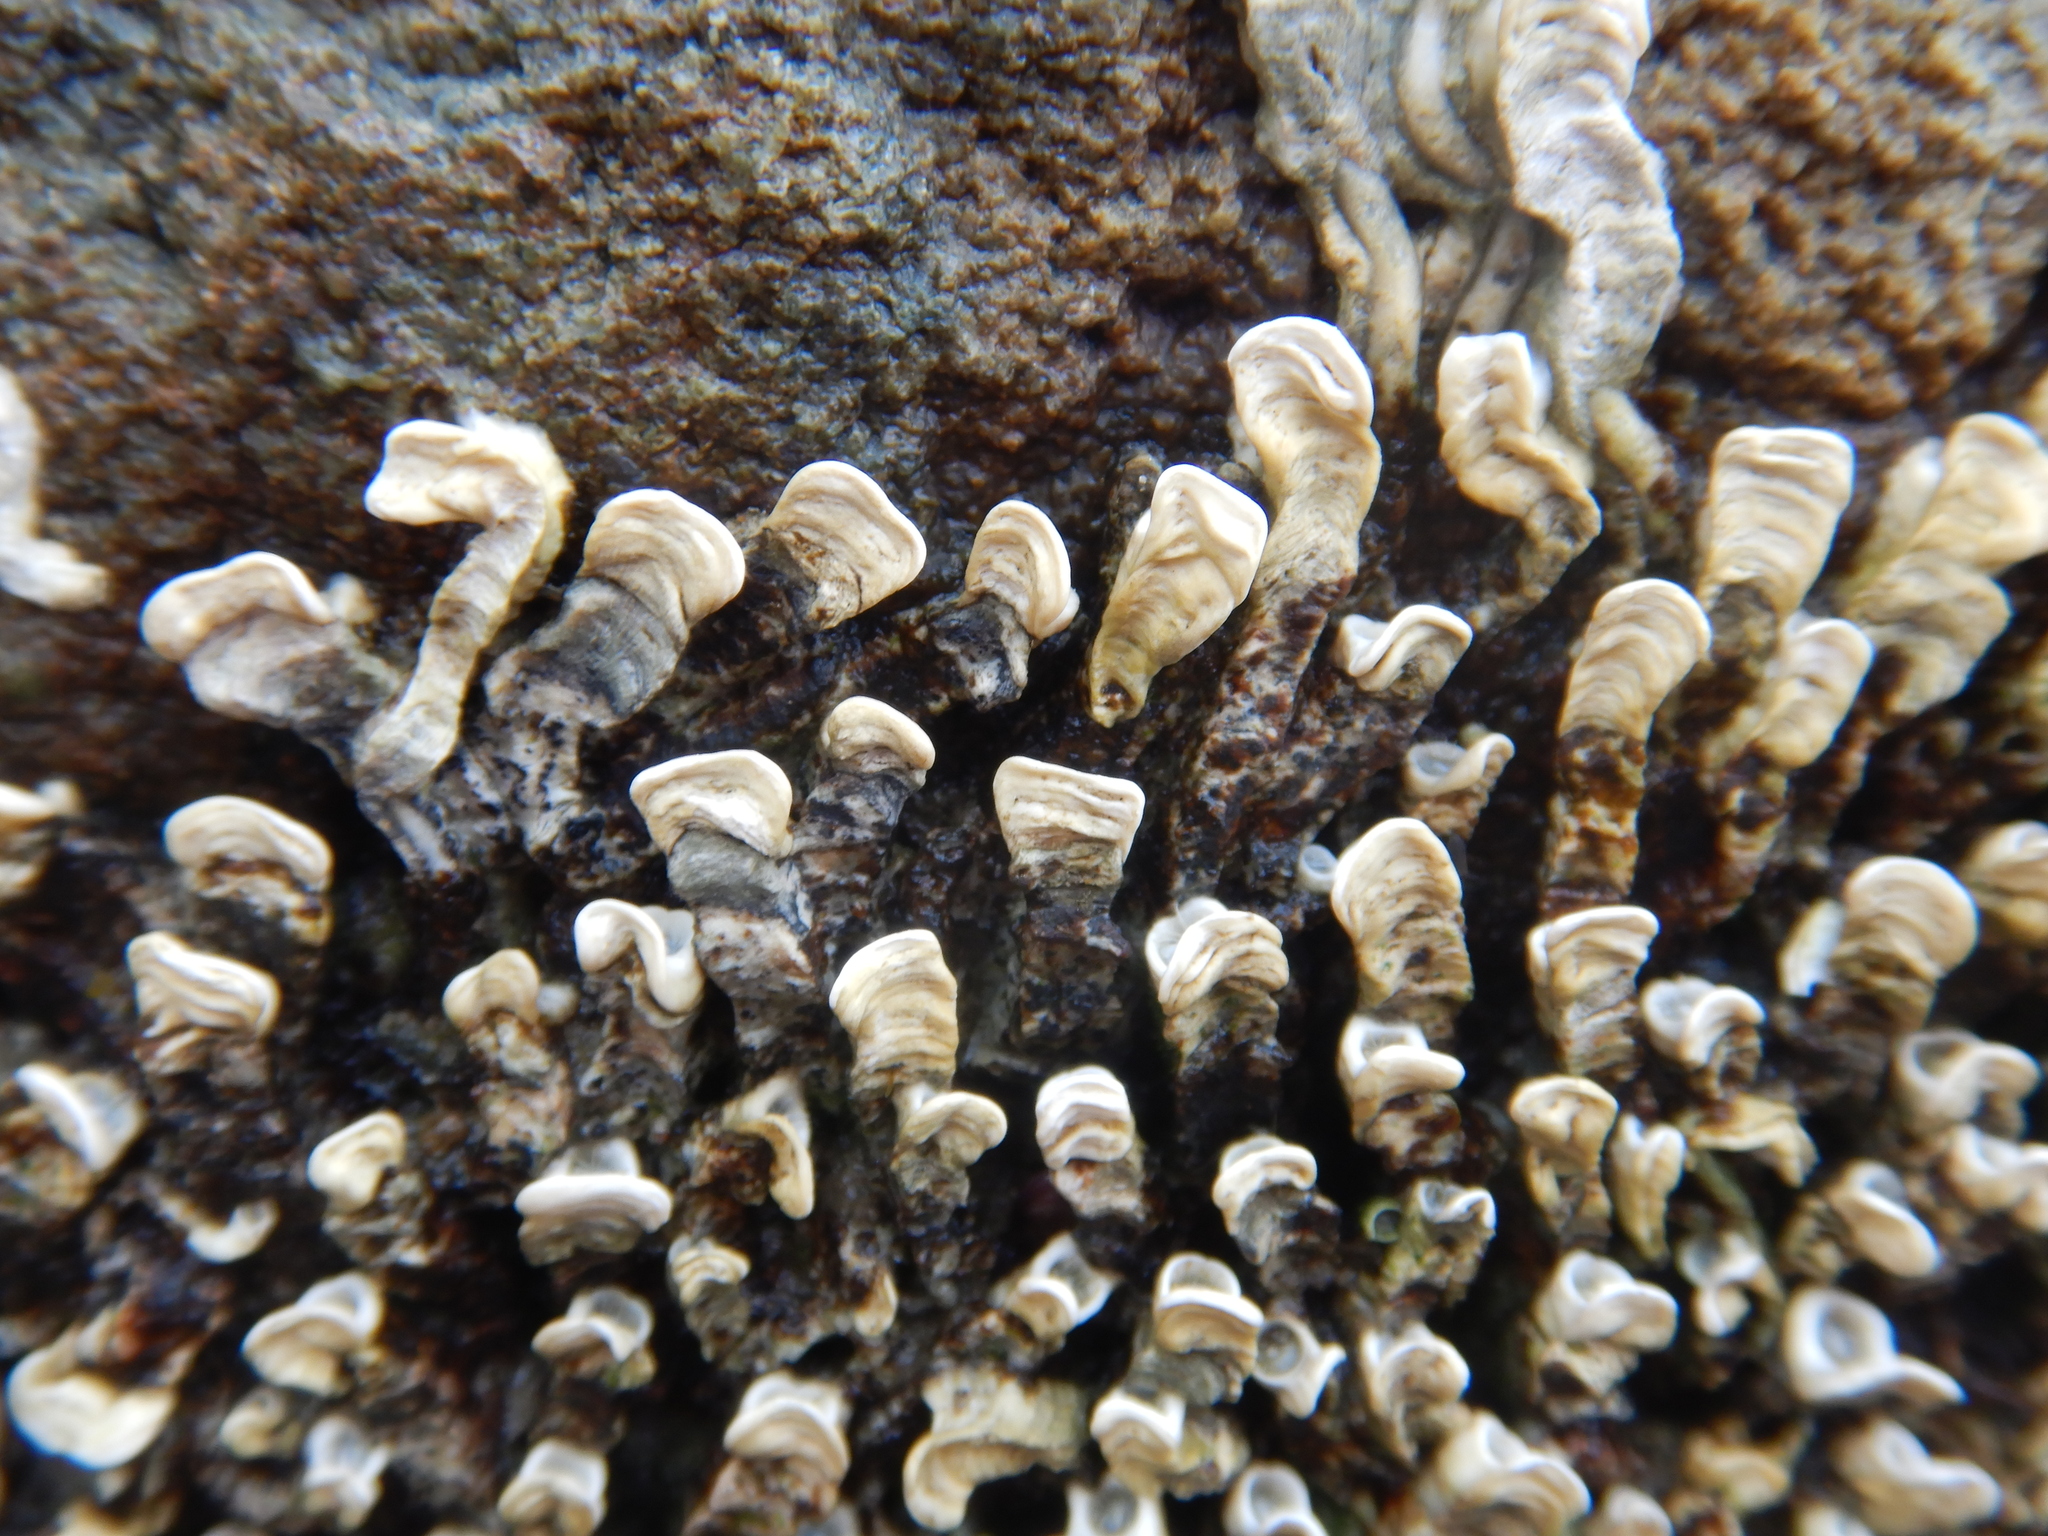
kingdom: Animalia
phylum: Annelida
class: Polychaeta
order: Sabellida
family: Serpulidae
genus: Galeolaria
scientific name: Galeolaria caespitosa
